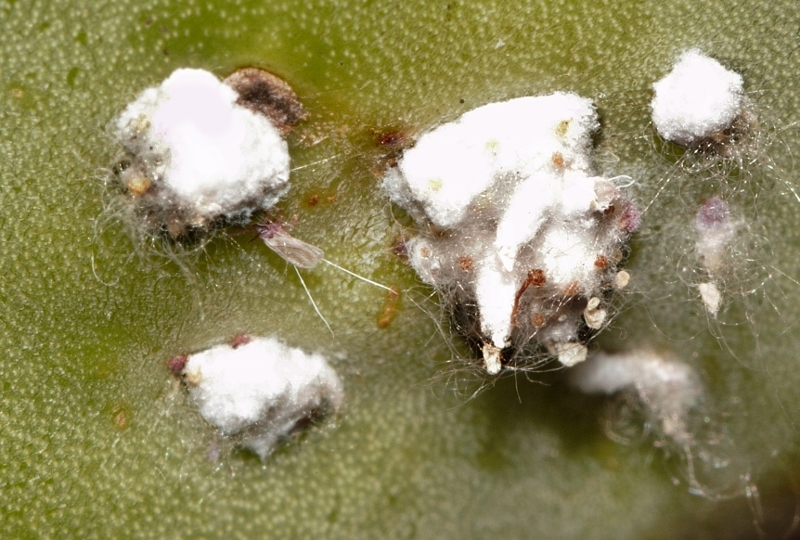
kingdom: Animalia
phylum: Arthropoda
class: Insecta
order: Hemiptera
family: Dactylopiidae
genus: Dactylopius
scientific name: Dactylopius
